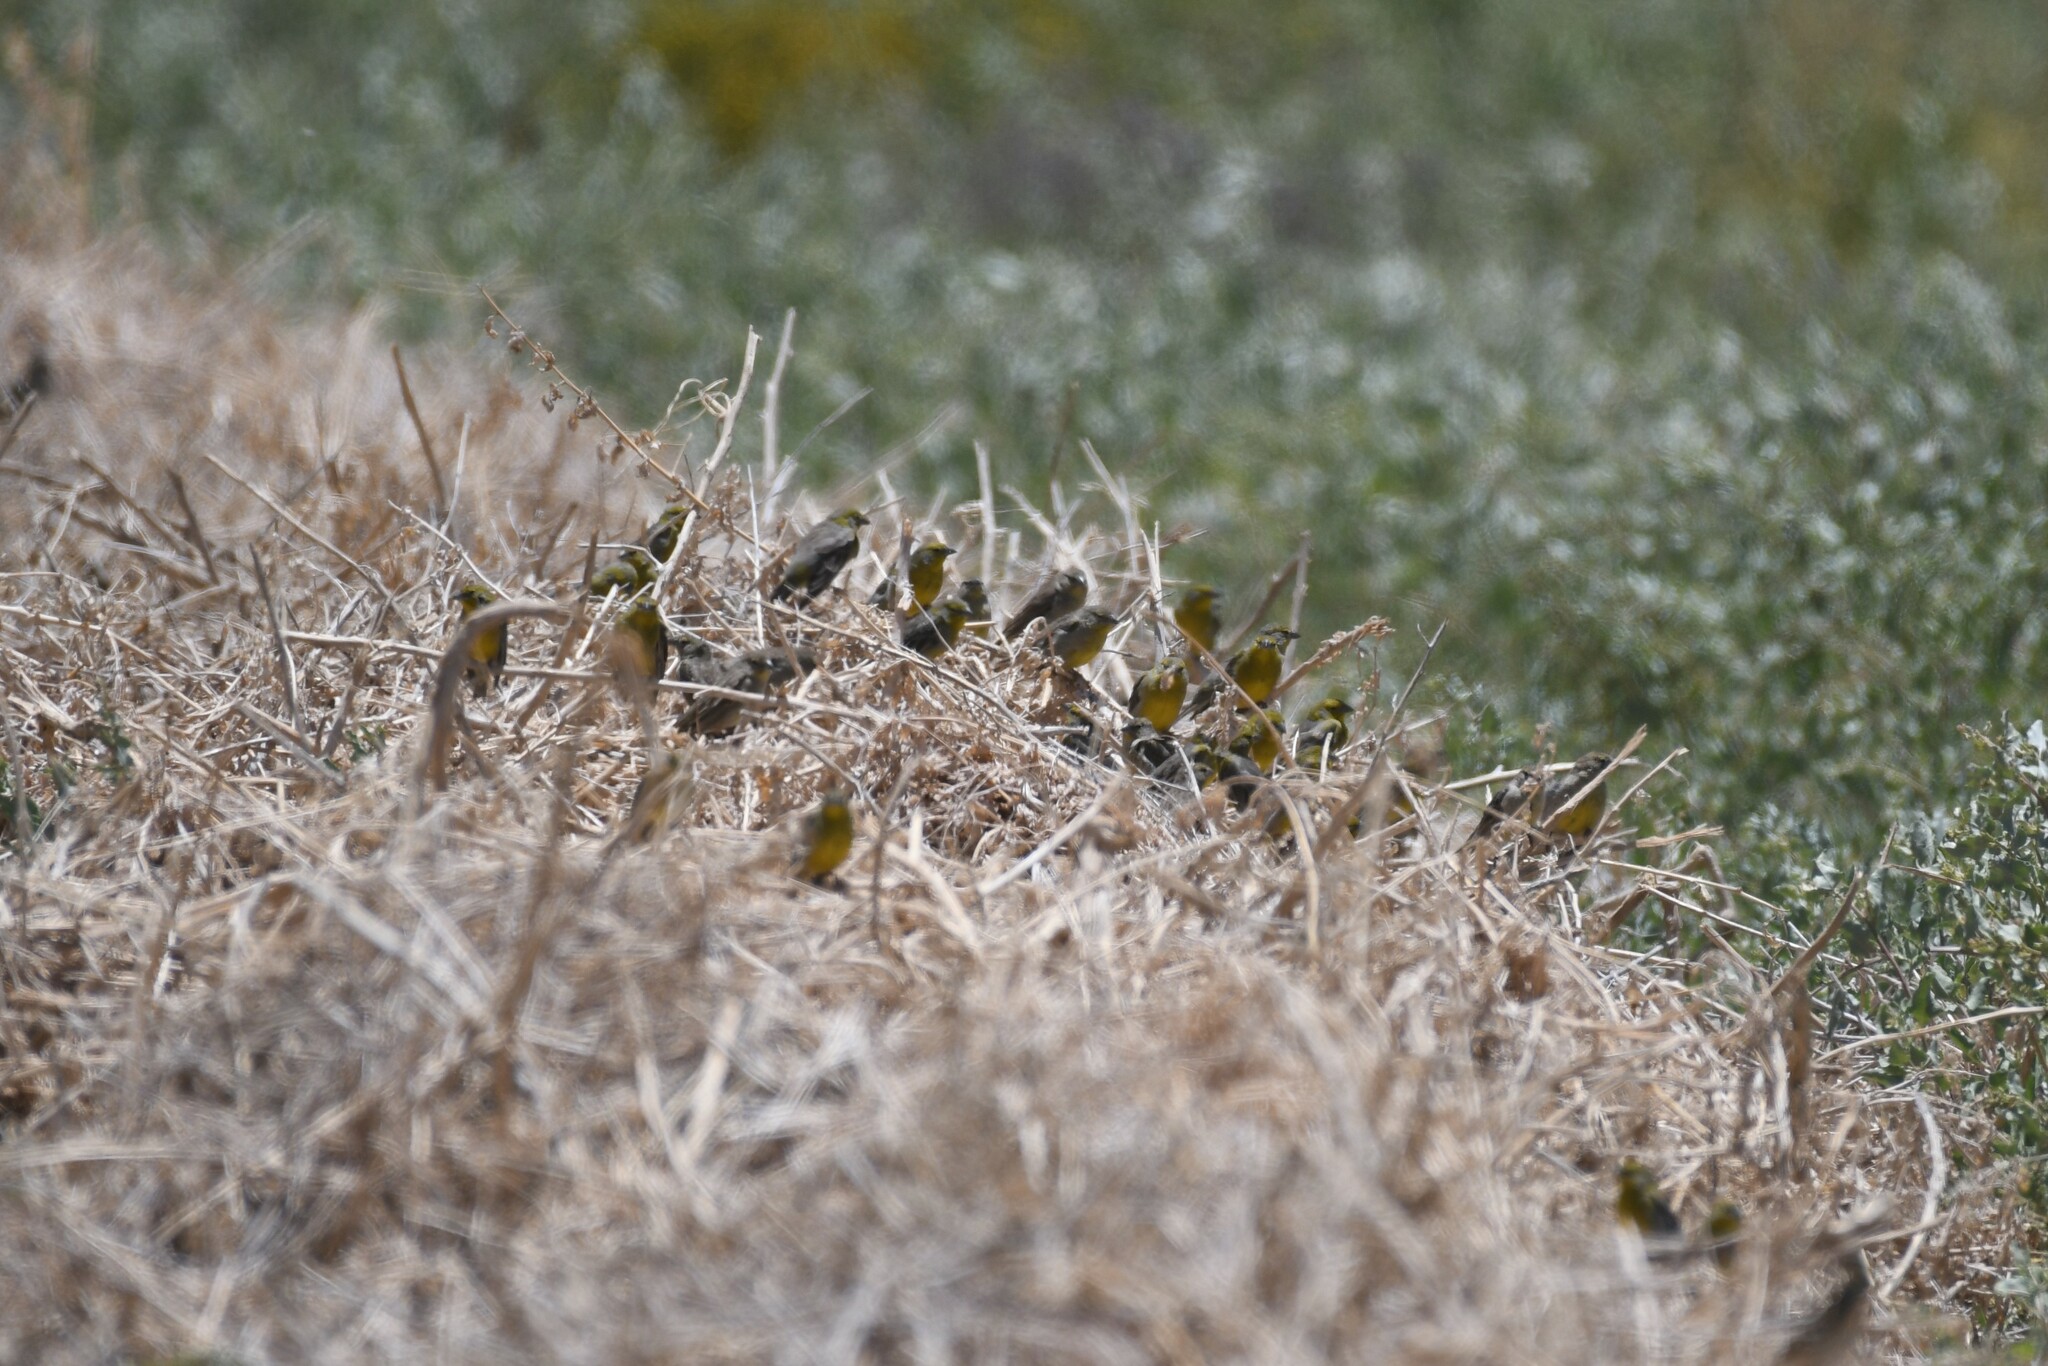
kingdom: Animalia
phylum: Chordata
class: Aves
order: Passeriformes
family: Thraupidae
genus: Sicalis
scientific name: Sicalis raimondii
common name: Raimondi's yellow finch
